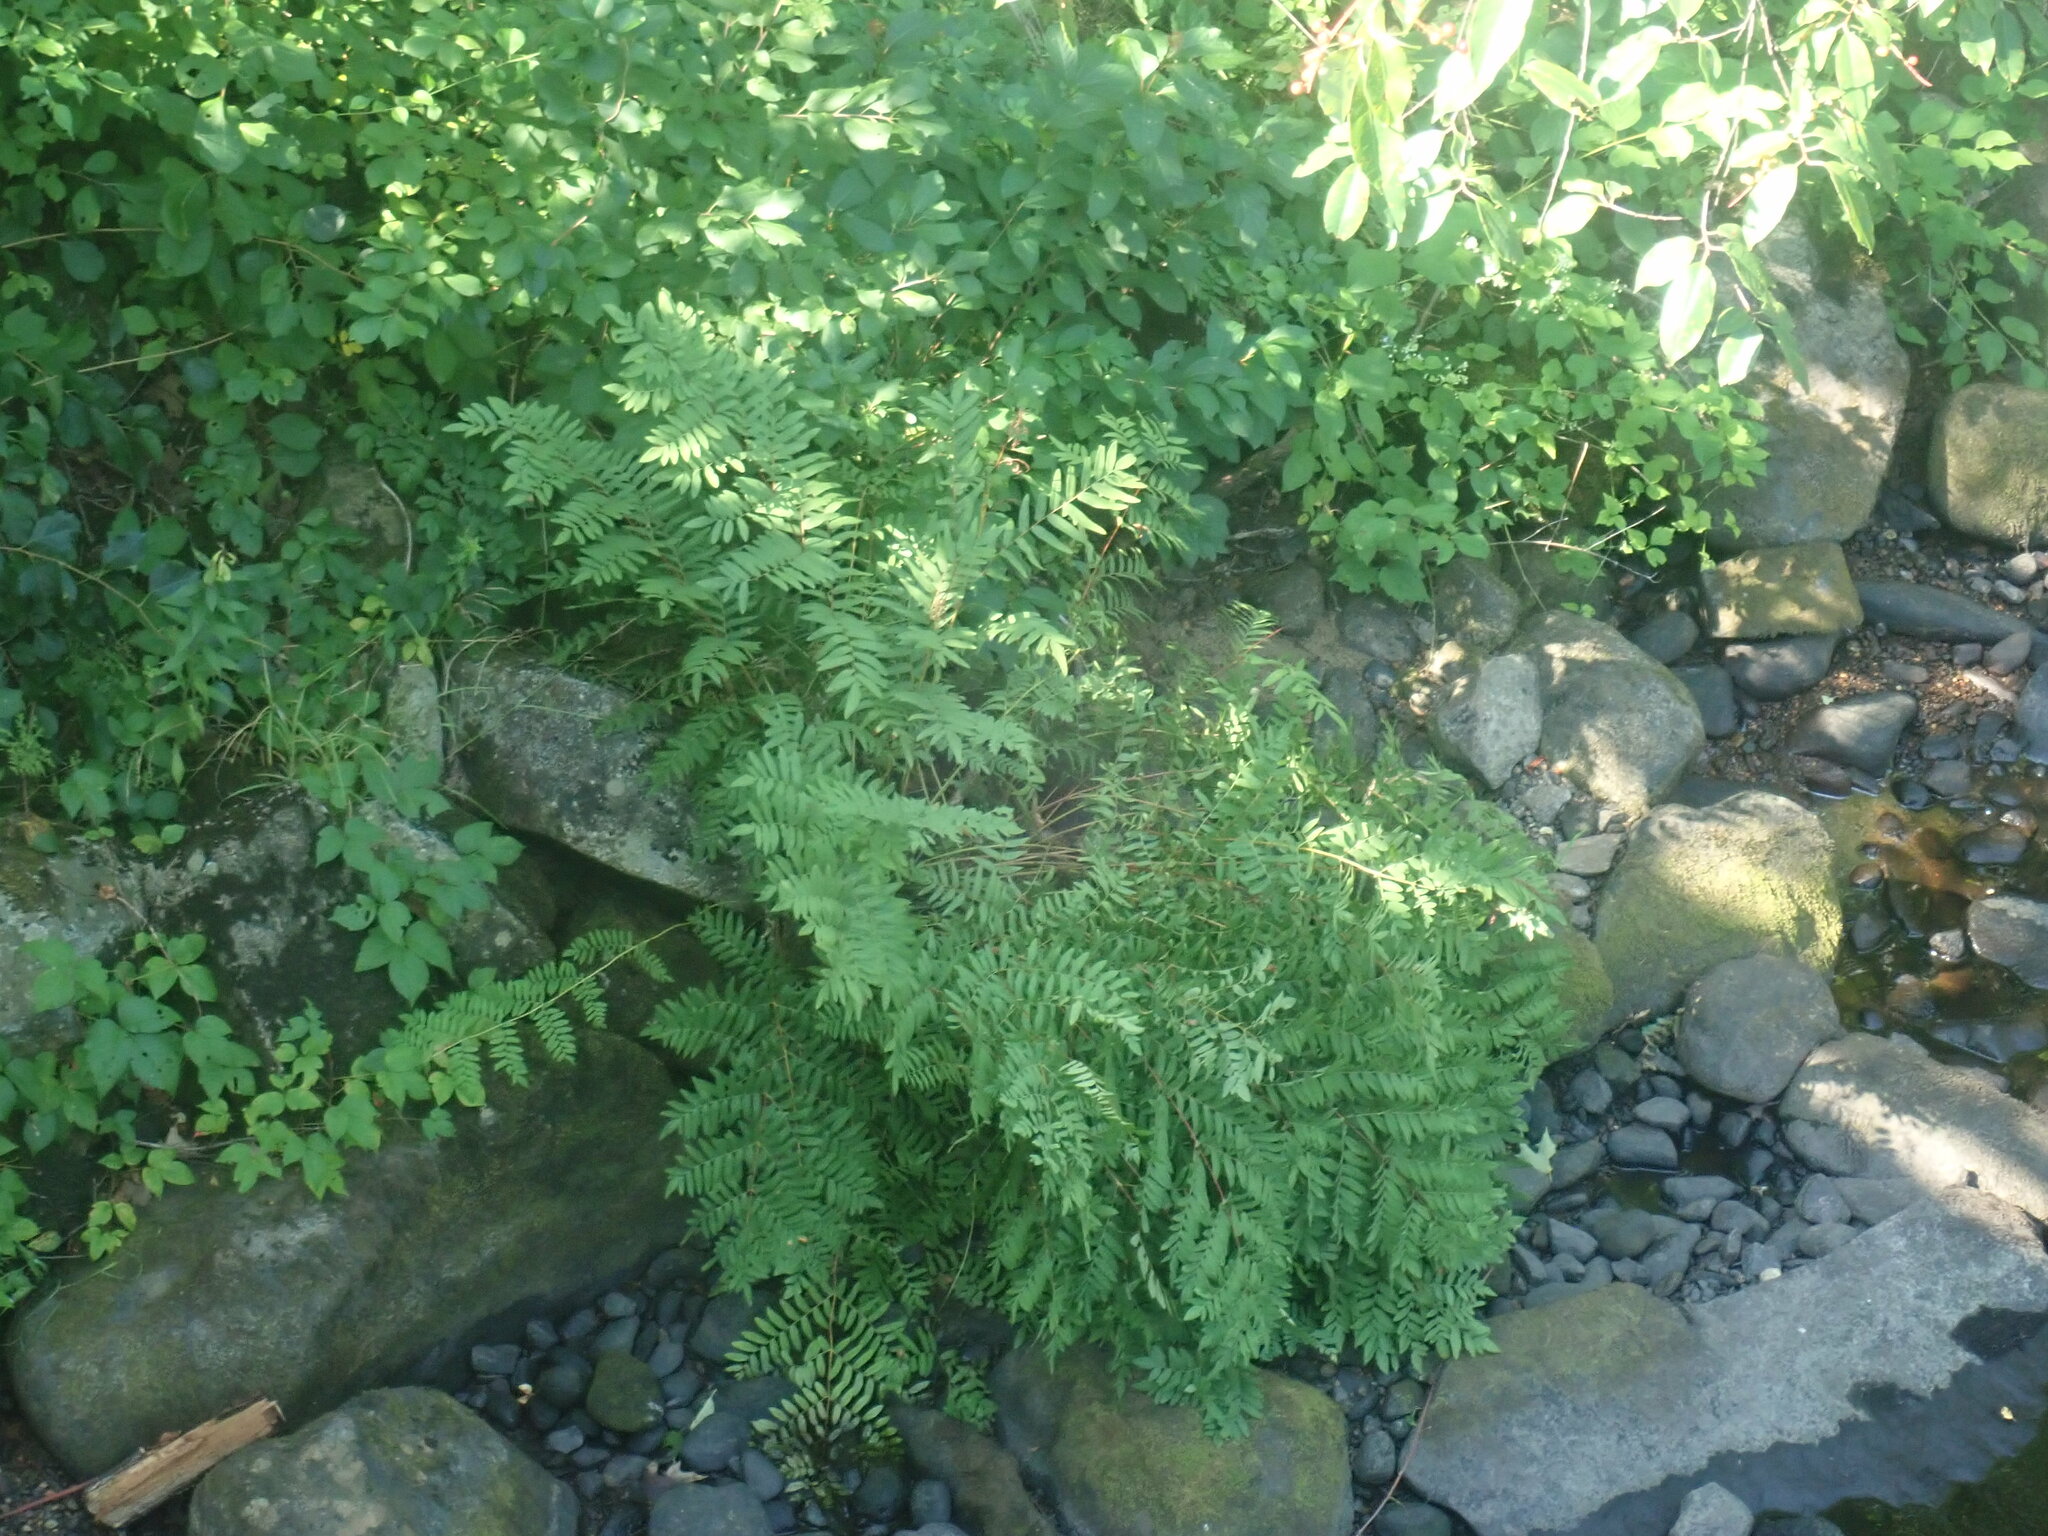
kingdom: Plantae
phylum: Tracheophyta
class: Polypodiopsida
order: Osmundales
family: Osmundaceae
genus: Osmunda
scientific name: Osmunda spectabilis
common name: American royal fern
